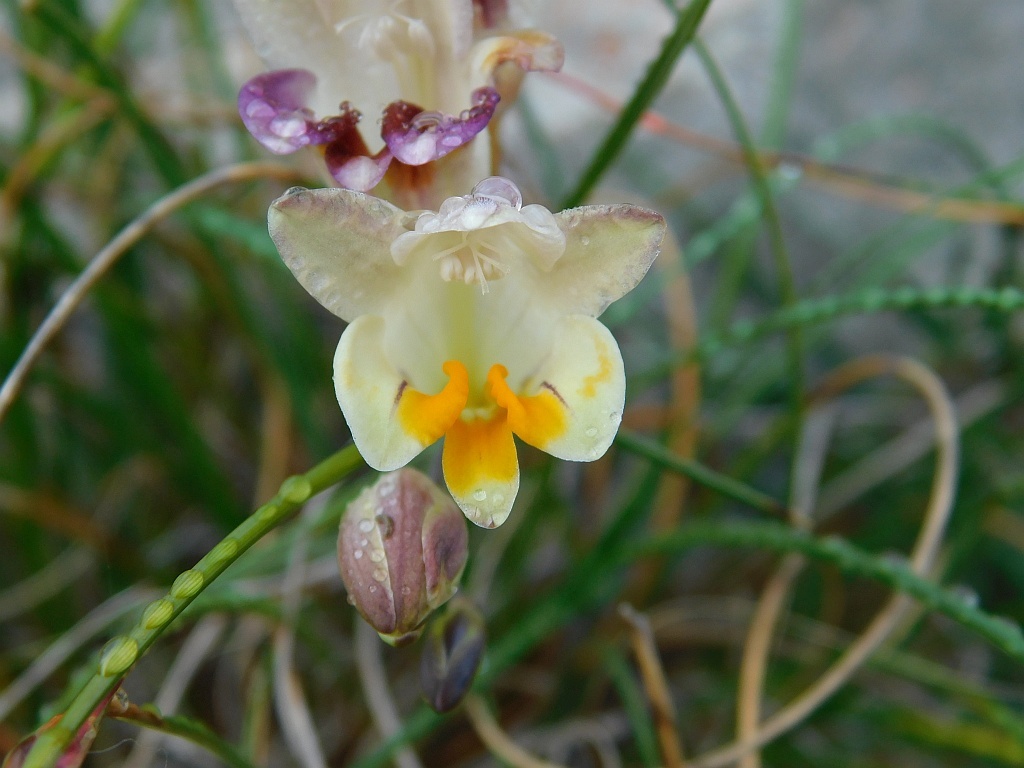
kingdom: Plantae
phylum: Tracheophyta
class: Liliopsida
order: Asparagales
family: Iridaceae
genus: Freesia
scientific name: Freesia refracta
